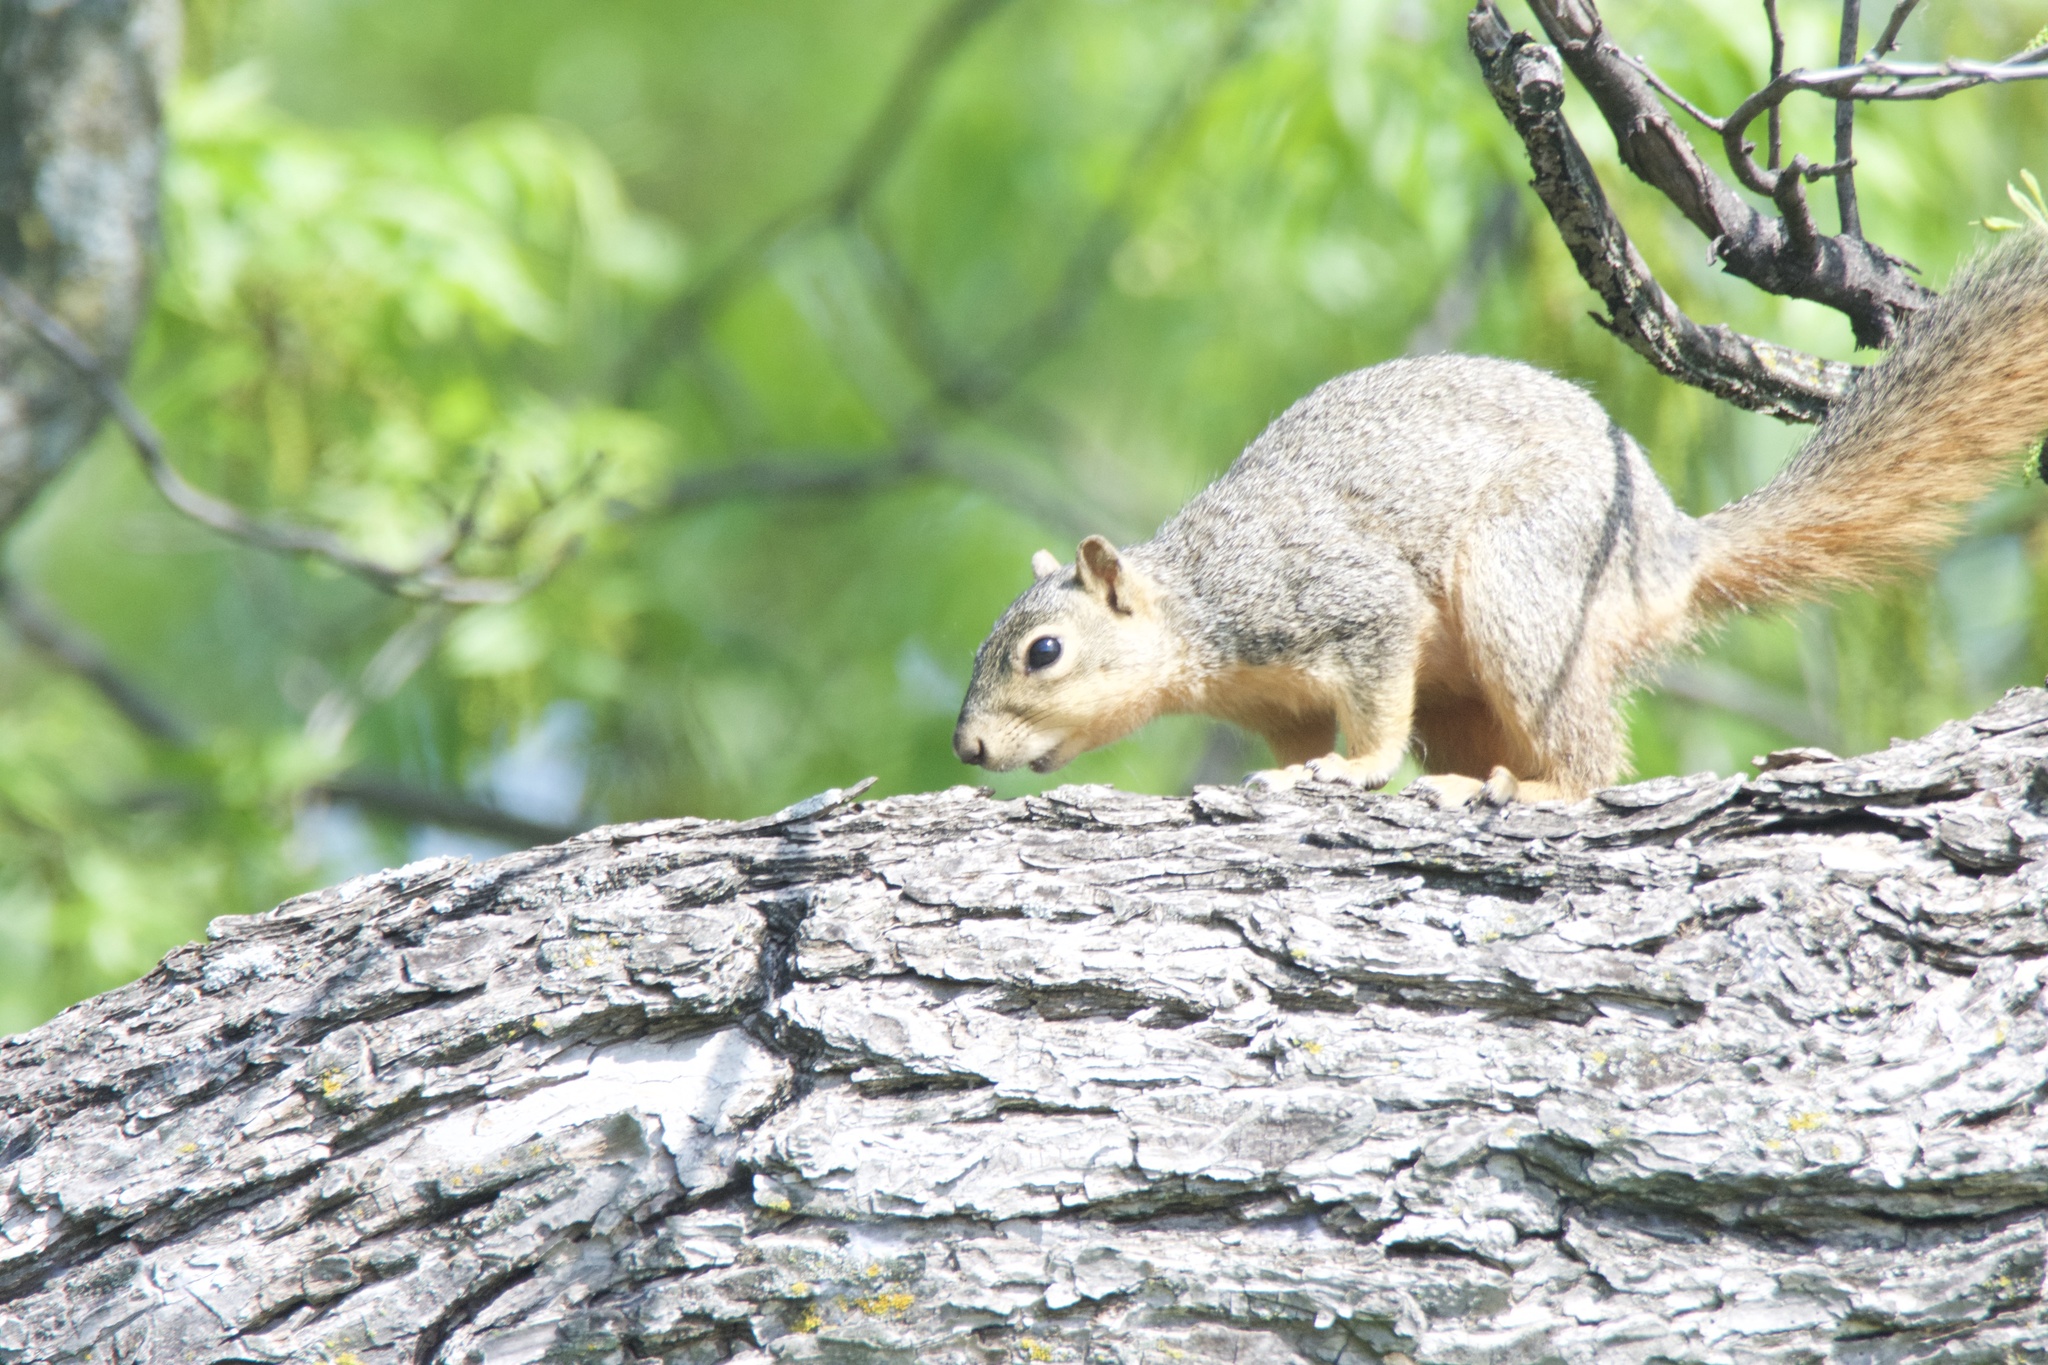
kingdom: Animalia
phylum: Chordata
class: Mammalia
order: Rodentia
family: Sciuridae
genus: Sciurus
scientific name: Sciurus niger
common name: Fox squirrel
